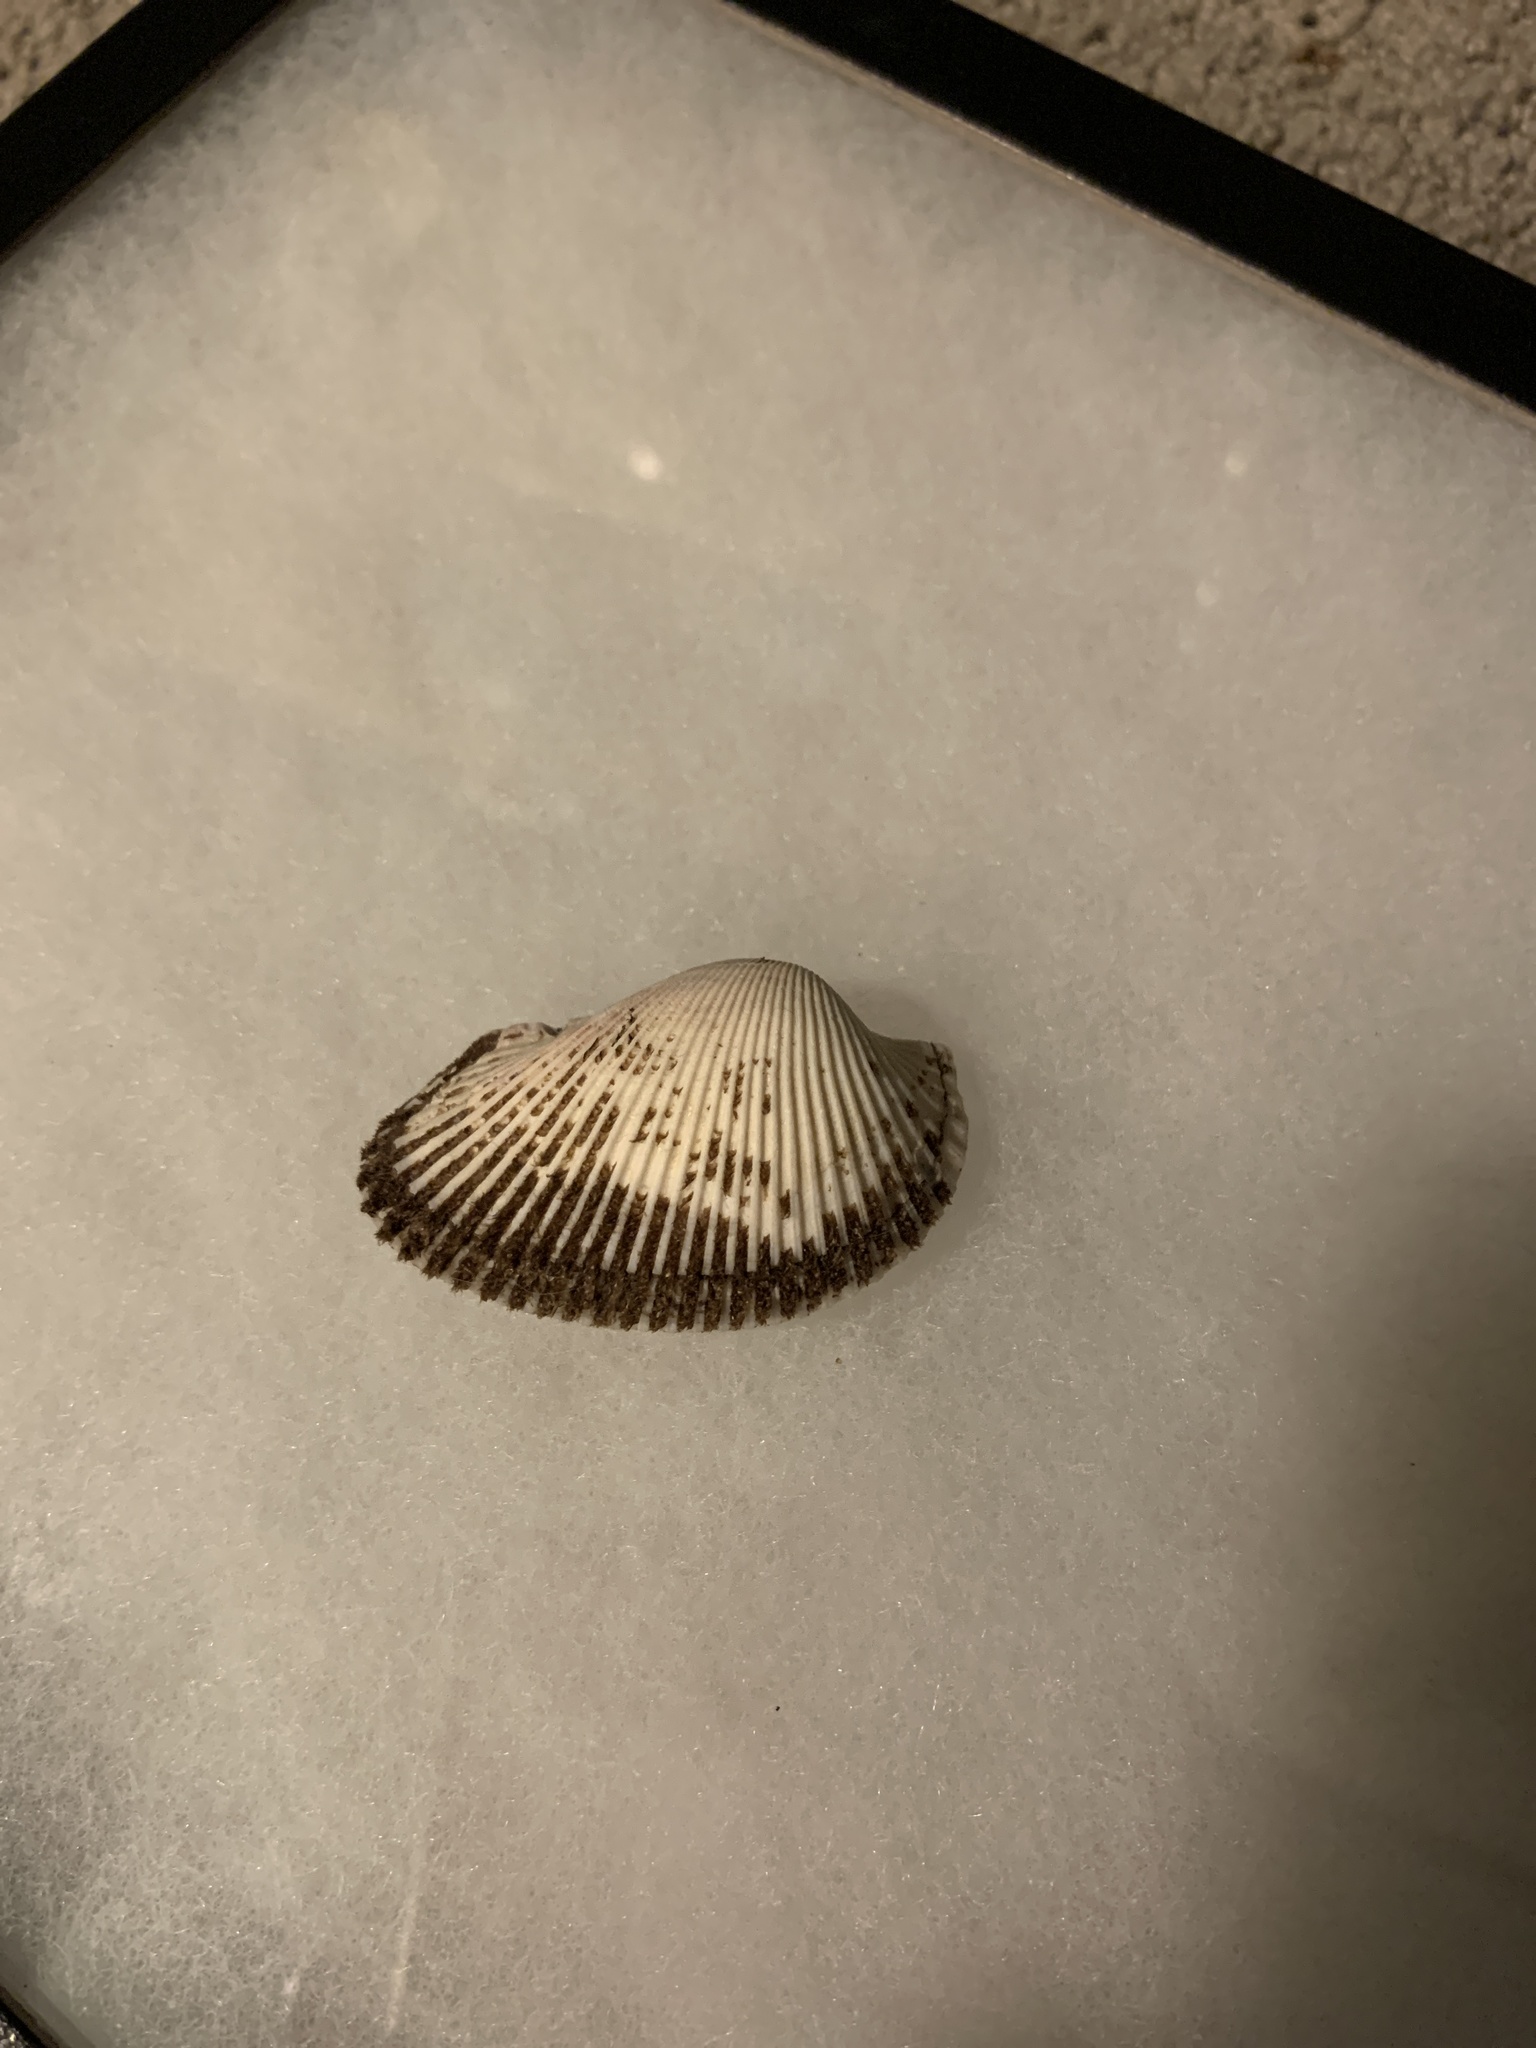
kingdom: Animalia
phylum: Mollusca
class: Bivalvia
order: Arcida
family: Arcidae
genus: Anadara
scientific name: Anadara secticostata
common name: Cut-ribbed ark
